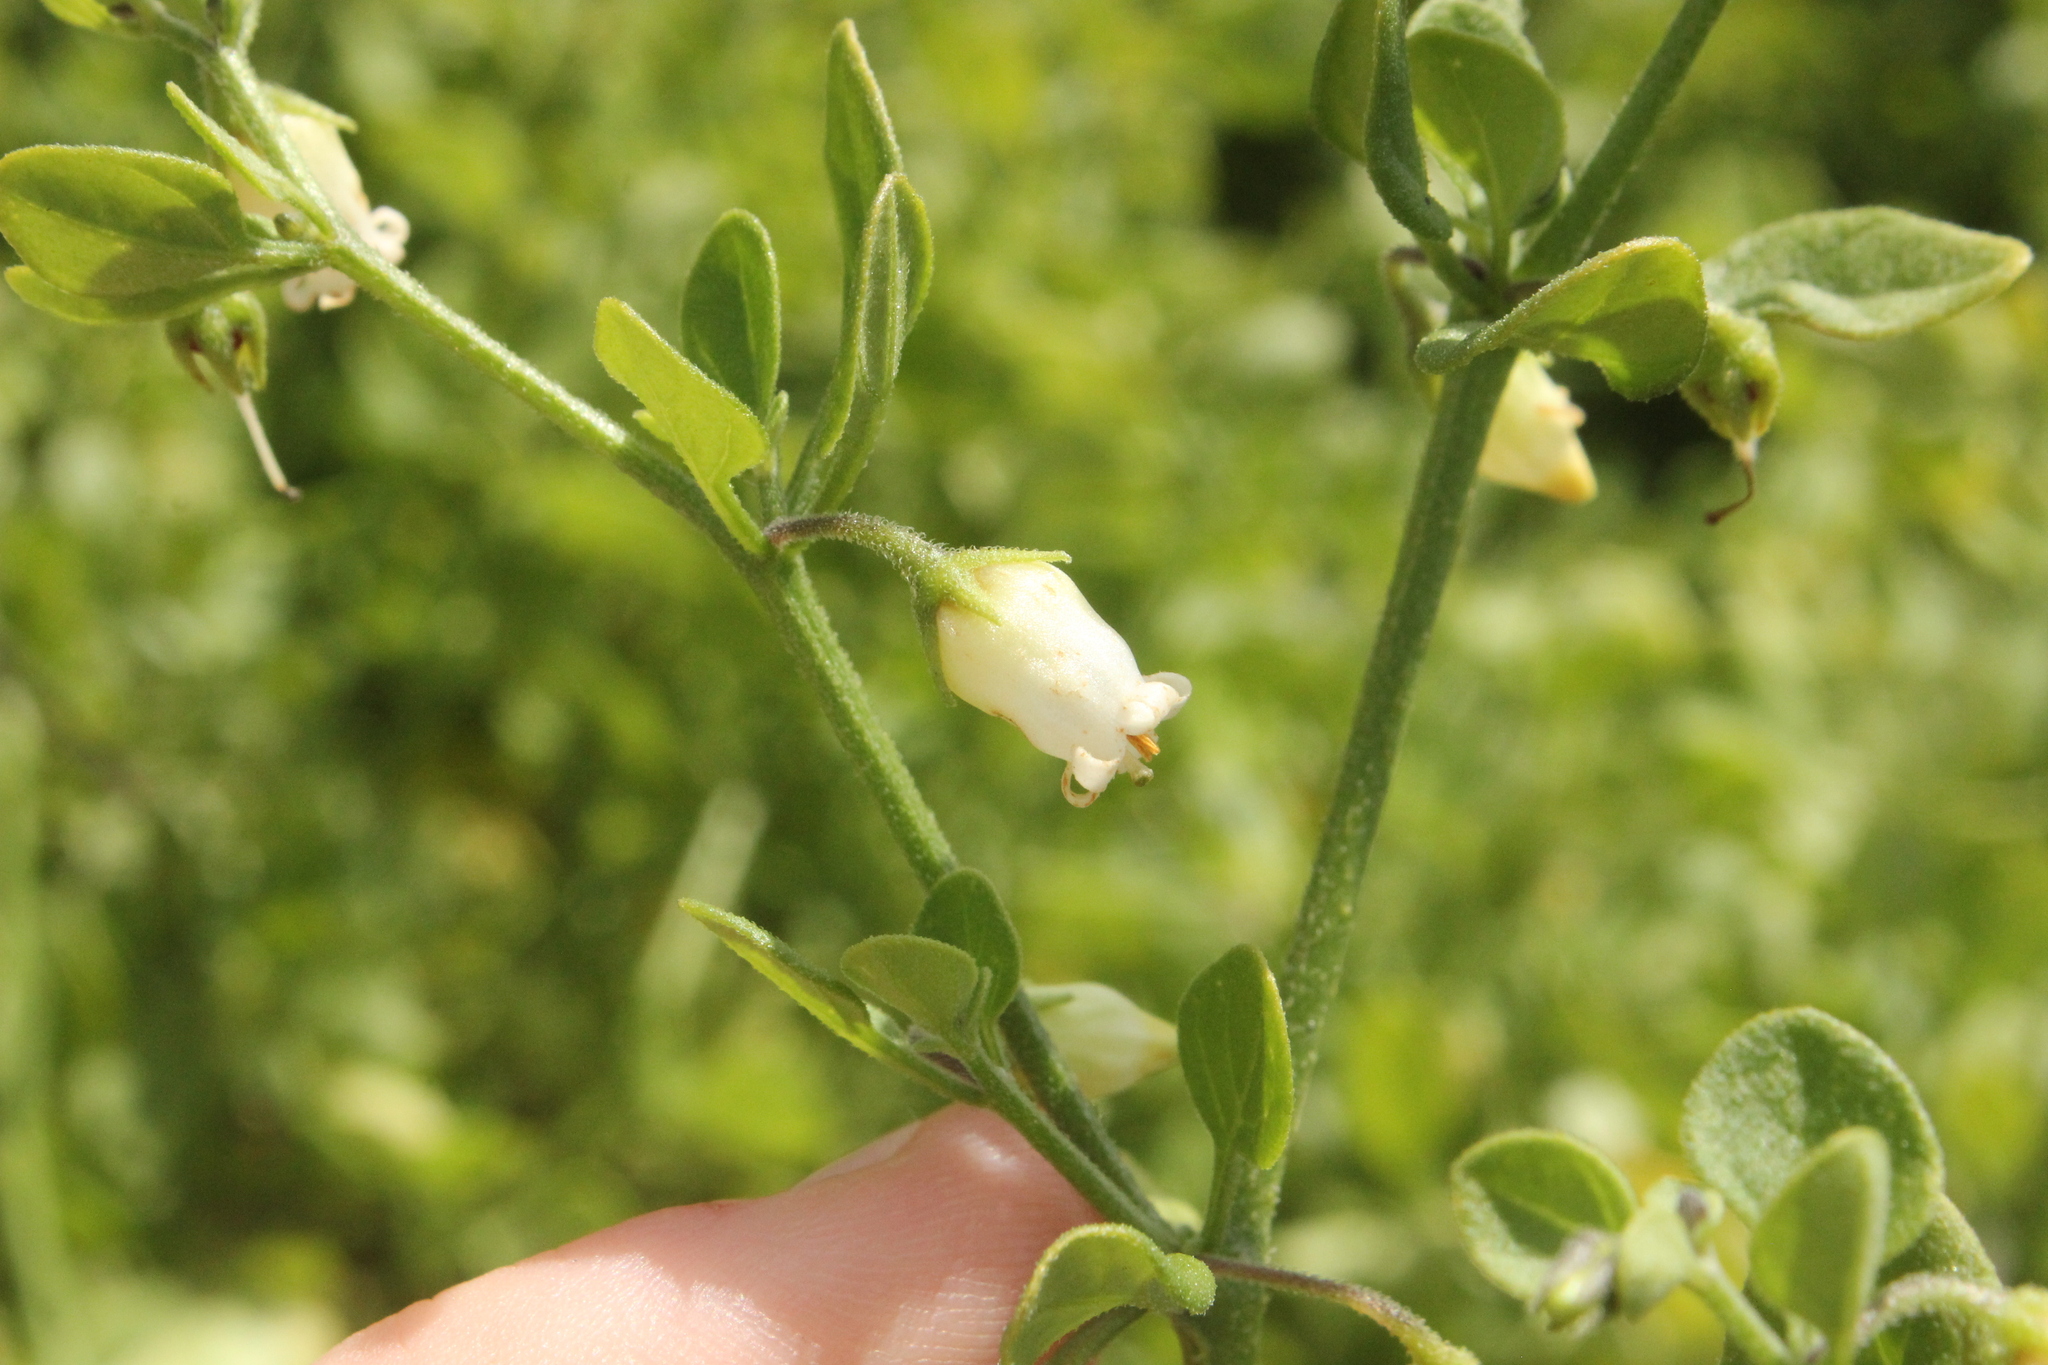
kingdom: Plantae
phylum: Tracheophyta
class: Magnoliopsida
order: Solanales
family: Solanaceae
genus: Salpichroa
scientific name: Salpichroa origanifolia
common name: Lily-of-the-valley-vine
